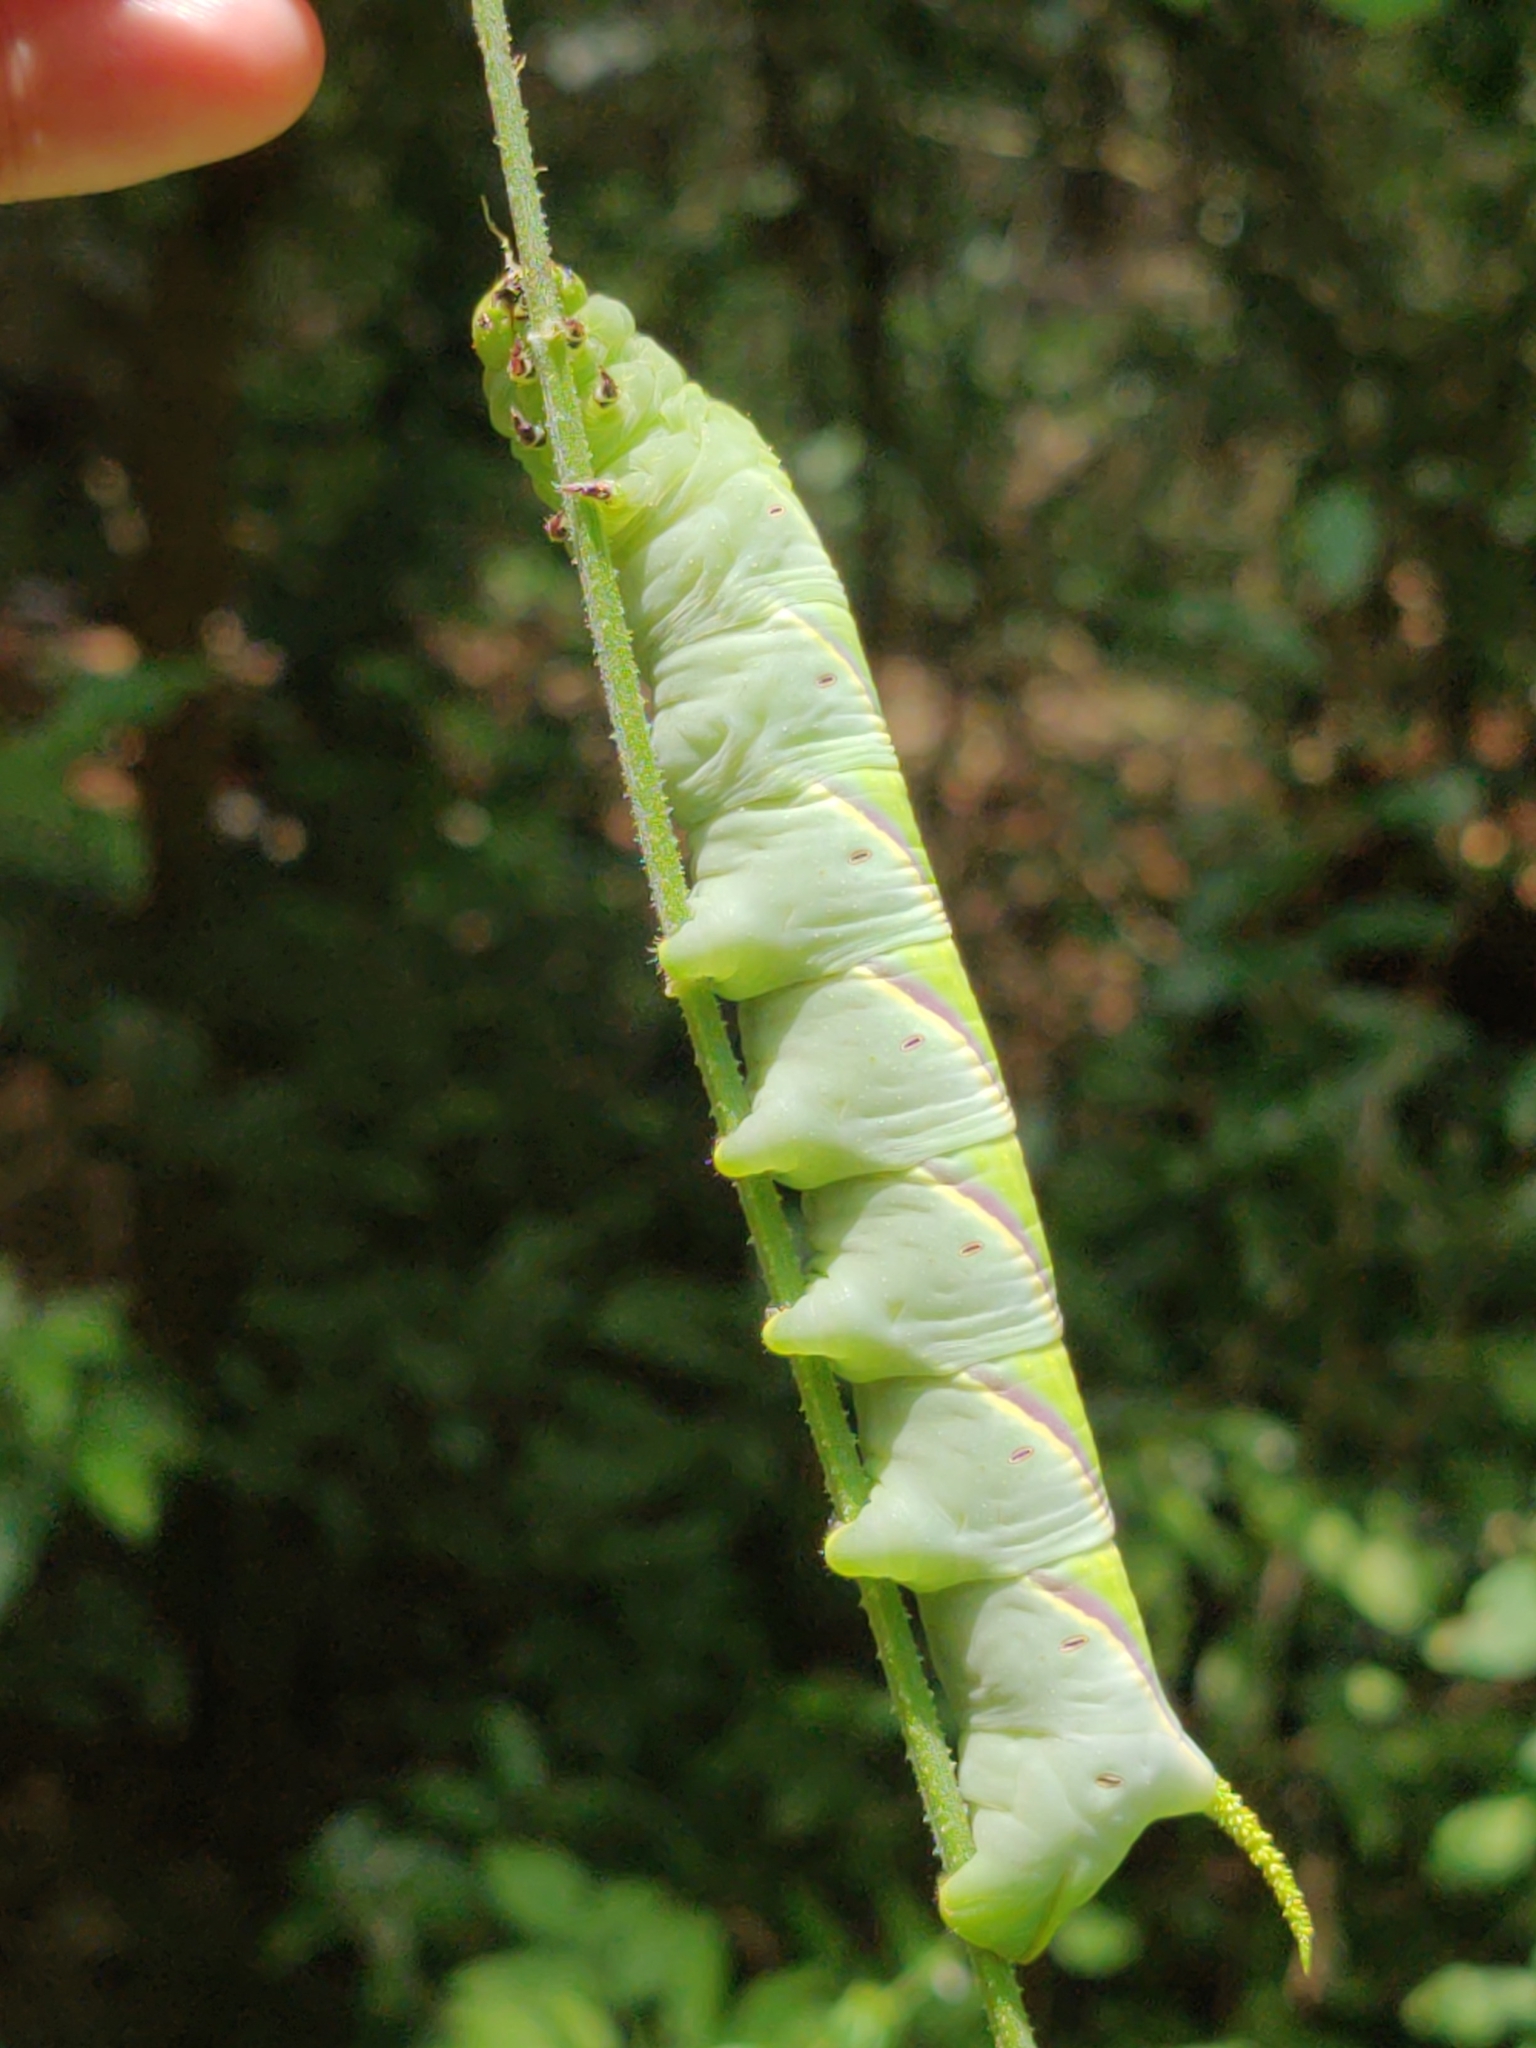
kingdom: Animalia
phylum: Arthropoda
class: Insecta
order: Lepidoptera
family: Sphingidae
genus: Manduca
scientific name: Manduca rustica
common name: Rustic sphinx
